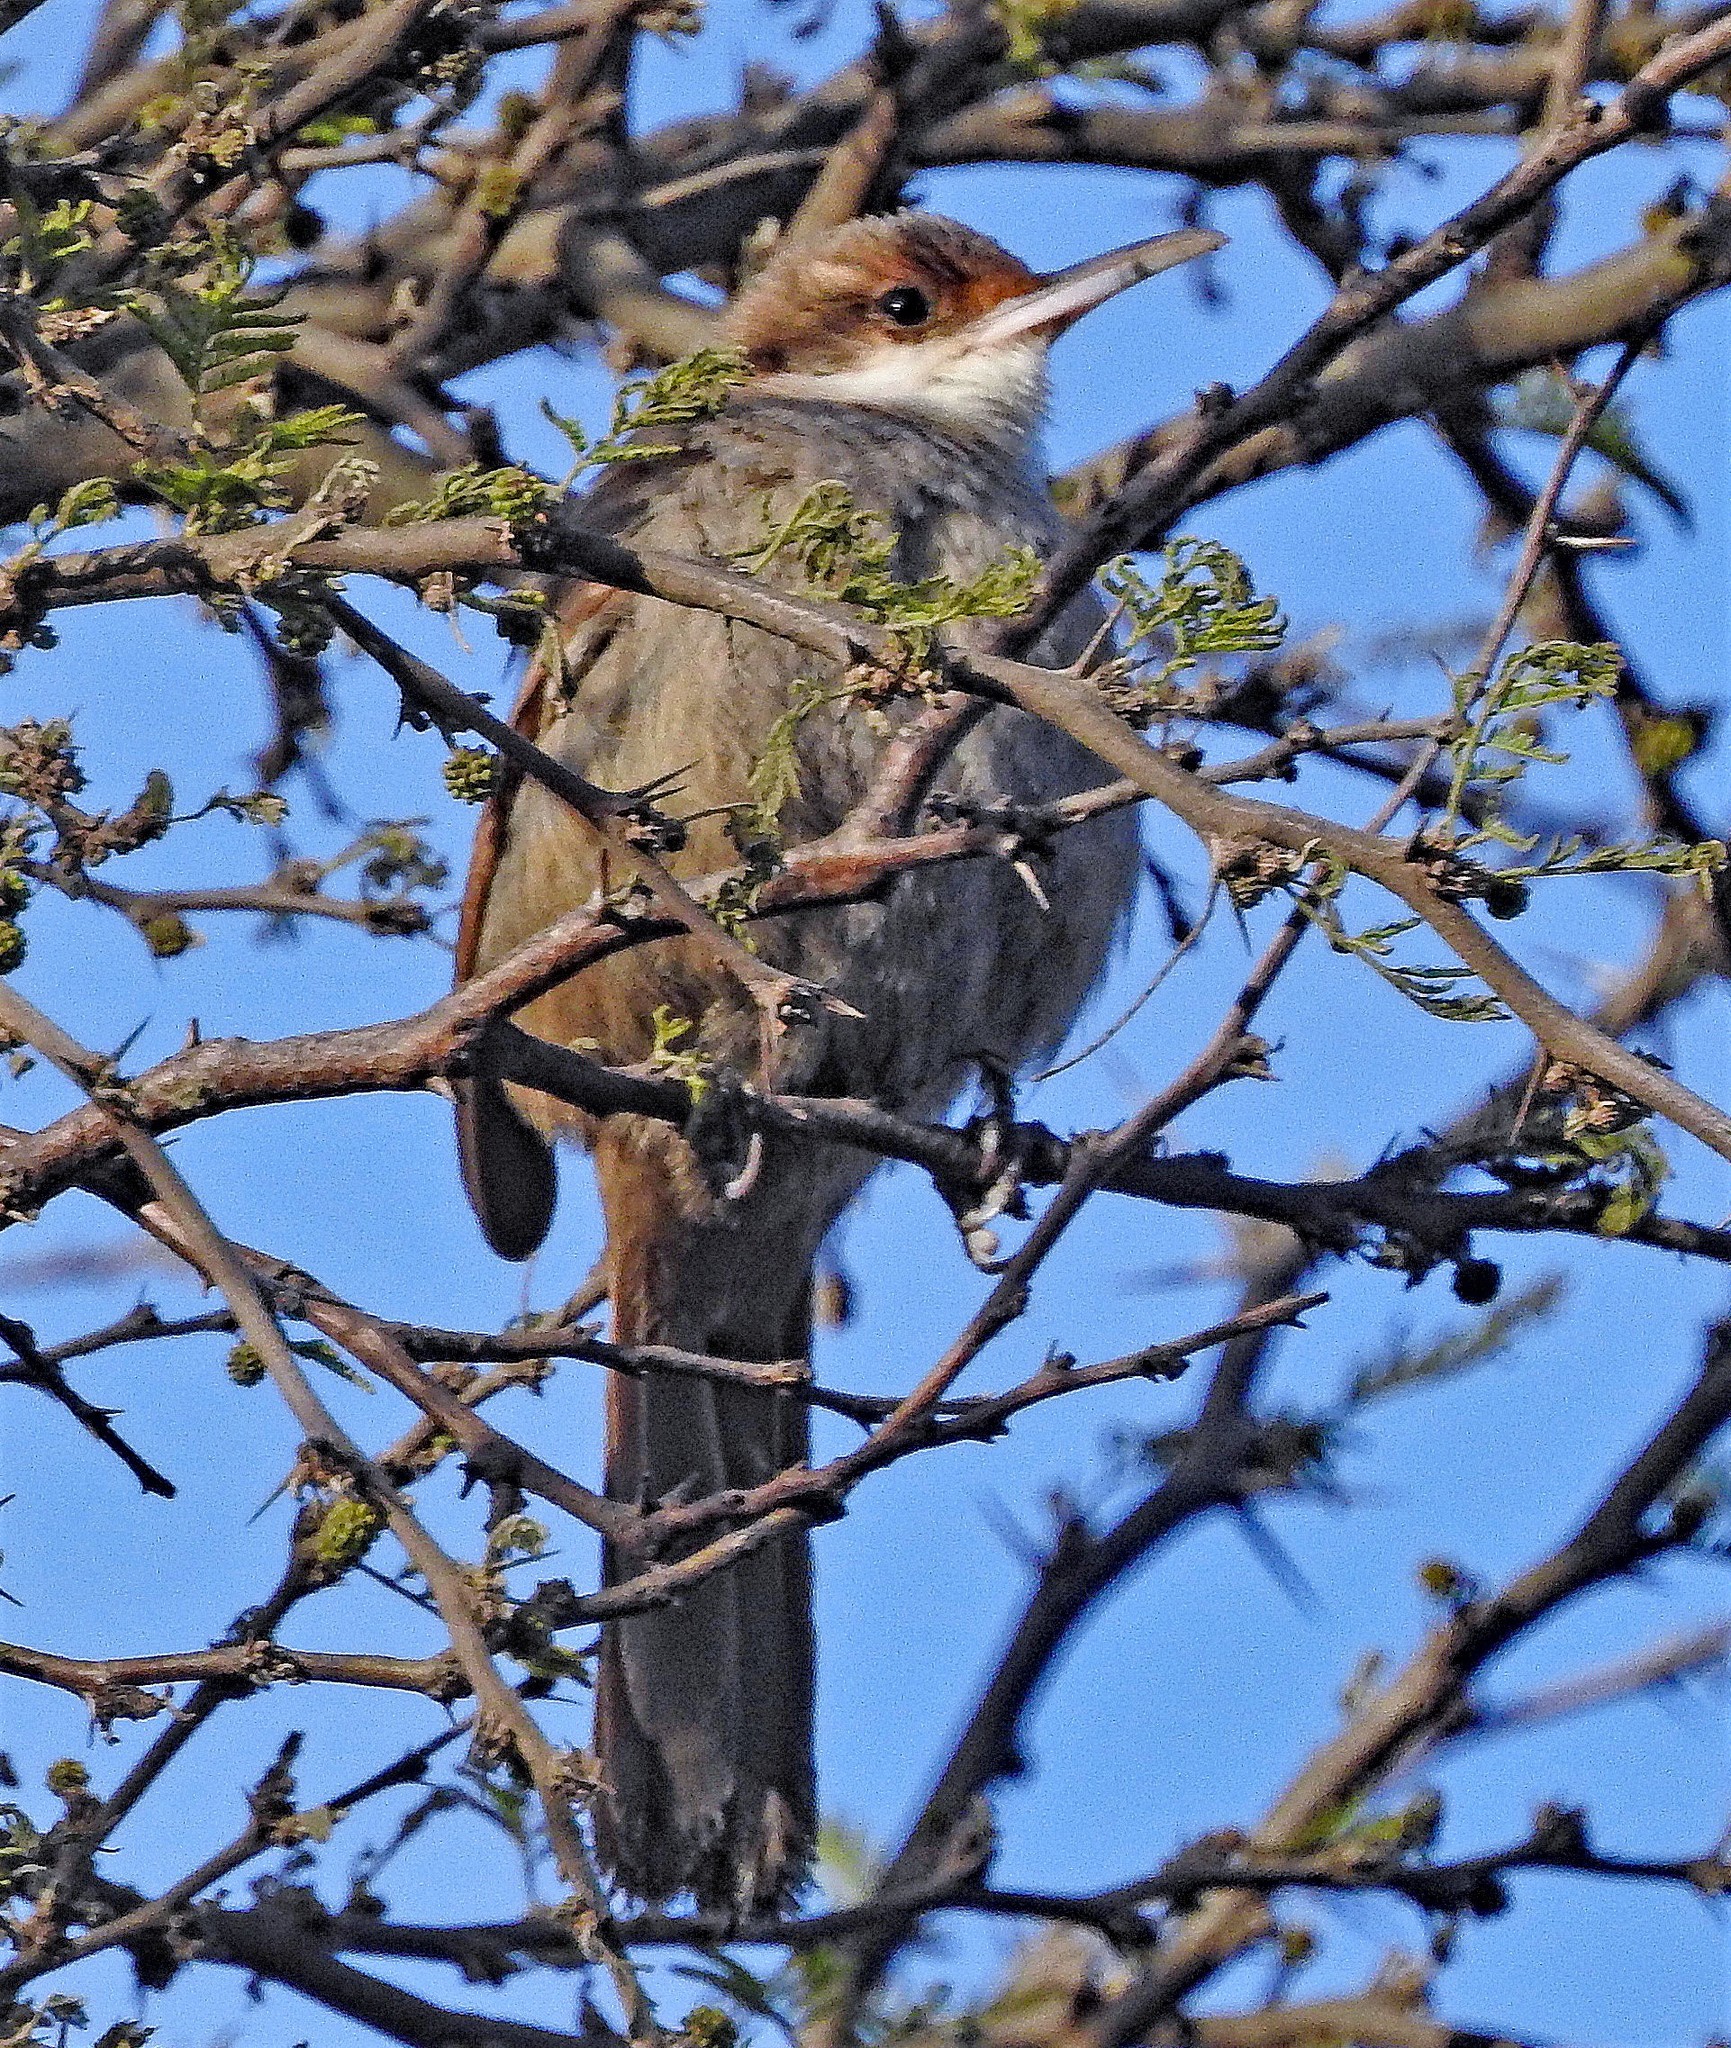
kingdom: Animalia
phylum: Chordata
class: Aves
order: Passeriformes
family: Furnariidae
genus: Upucerthia
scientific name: Upucerthia certhioides
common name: Chaco earthcreeper
